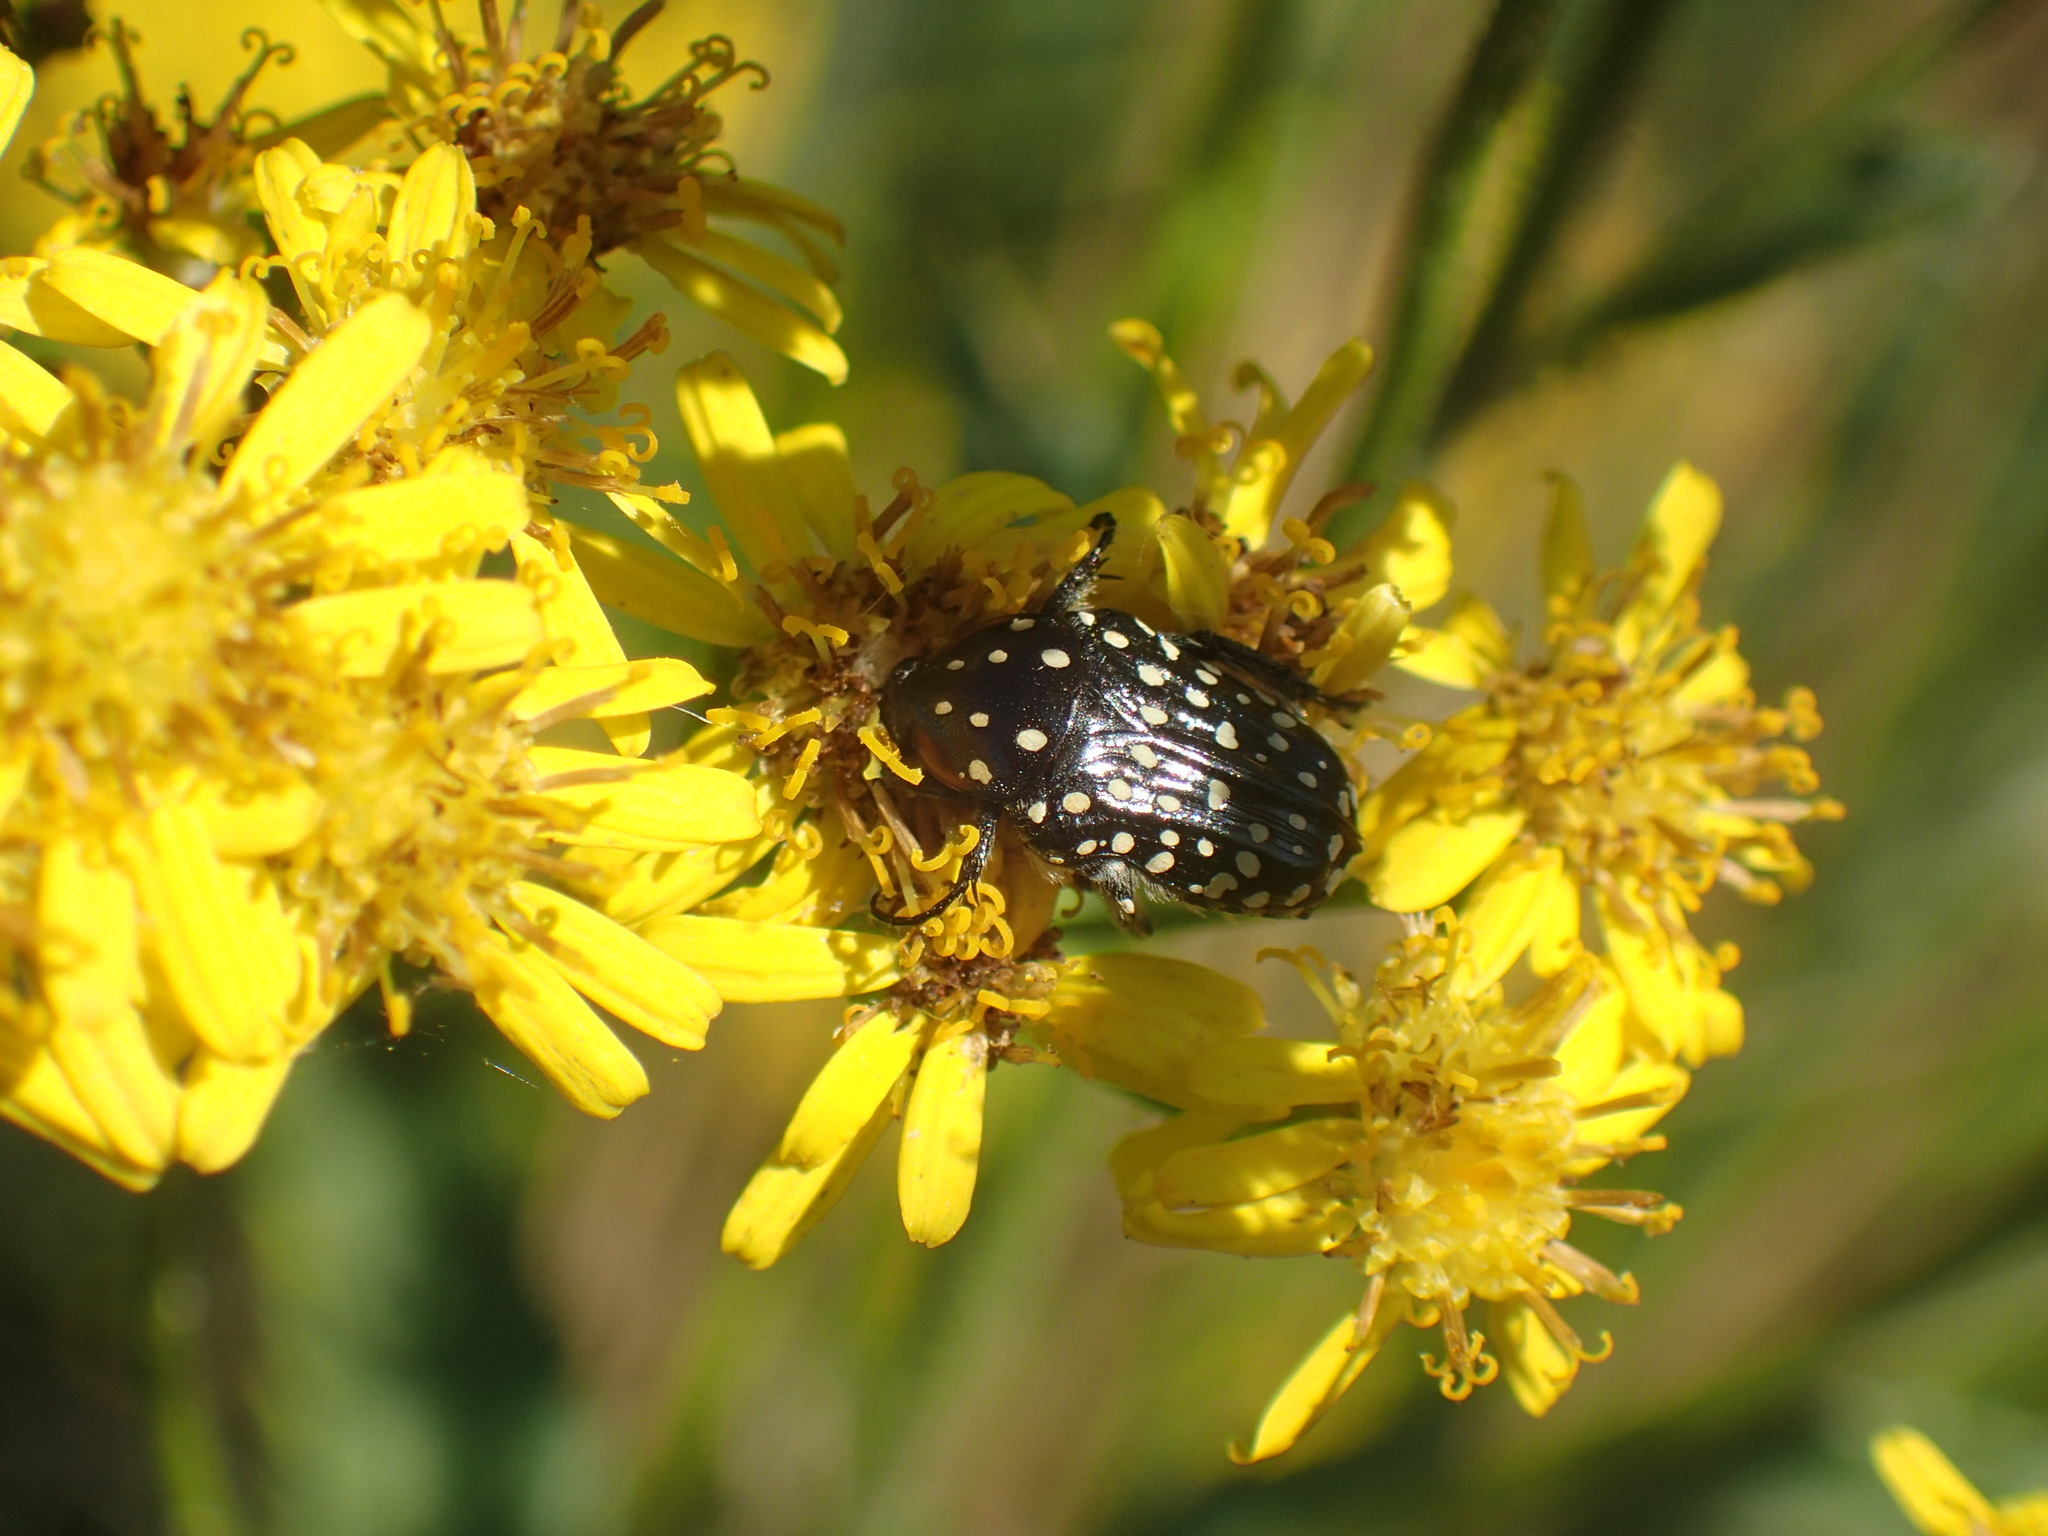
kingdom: Animalia
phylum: Arthropoda
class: Insecta
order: Coleoptera
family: Scarabaeidae
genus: Oxythyrea
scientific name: Oxythyrea
